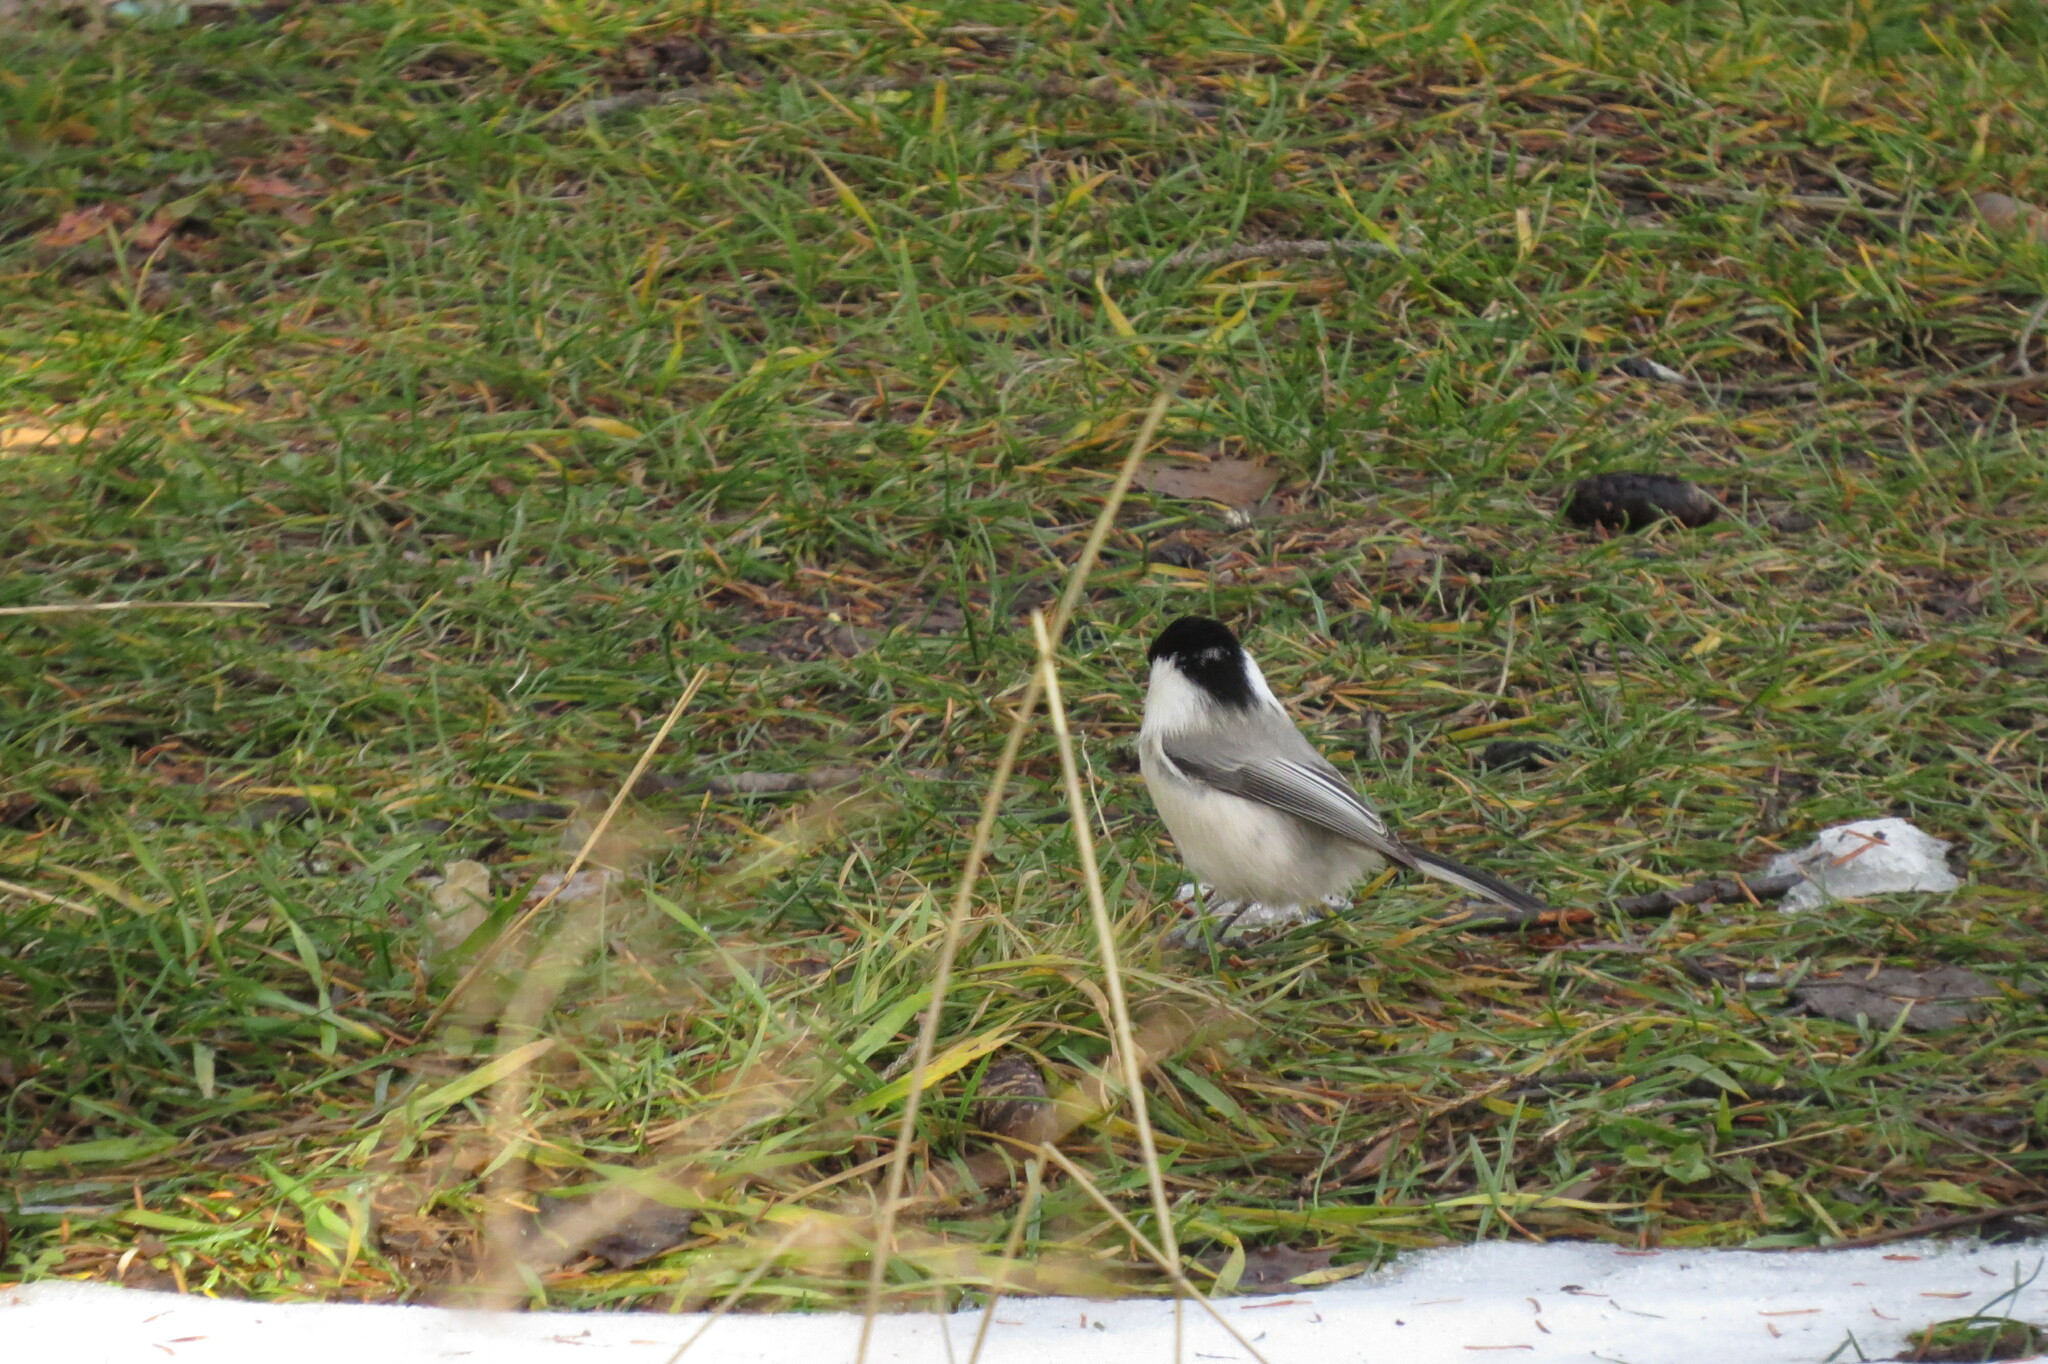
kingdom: Animalia
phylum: Chordata
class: Aves
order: Passeriformes
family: Paridae
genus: Poecile
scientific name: Poecile montanus
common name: Willow tit
